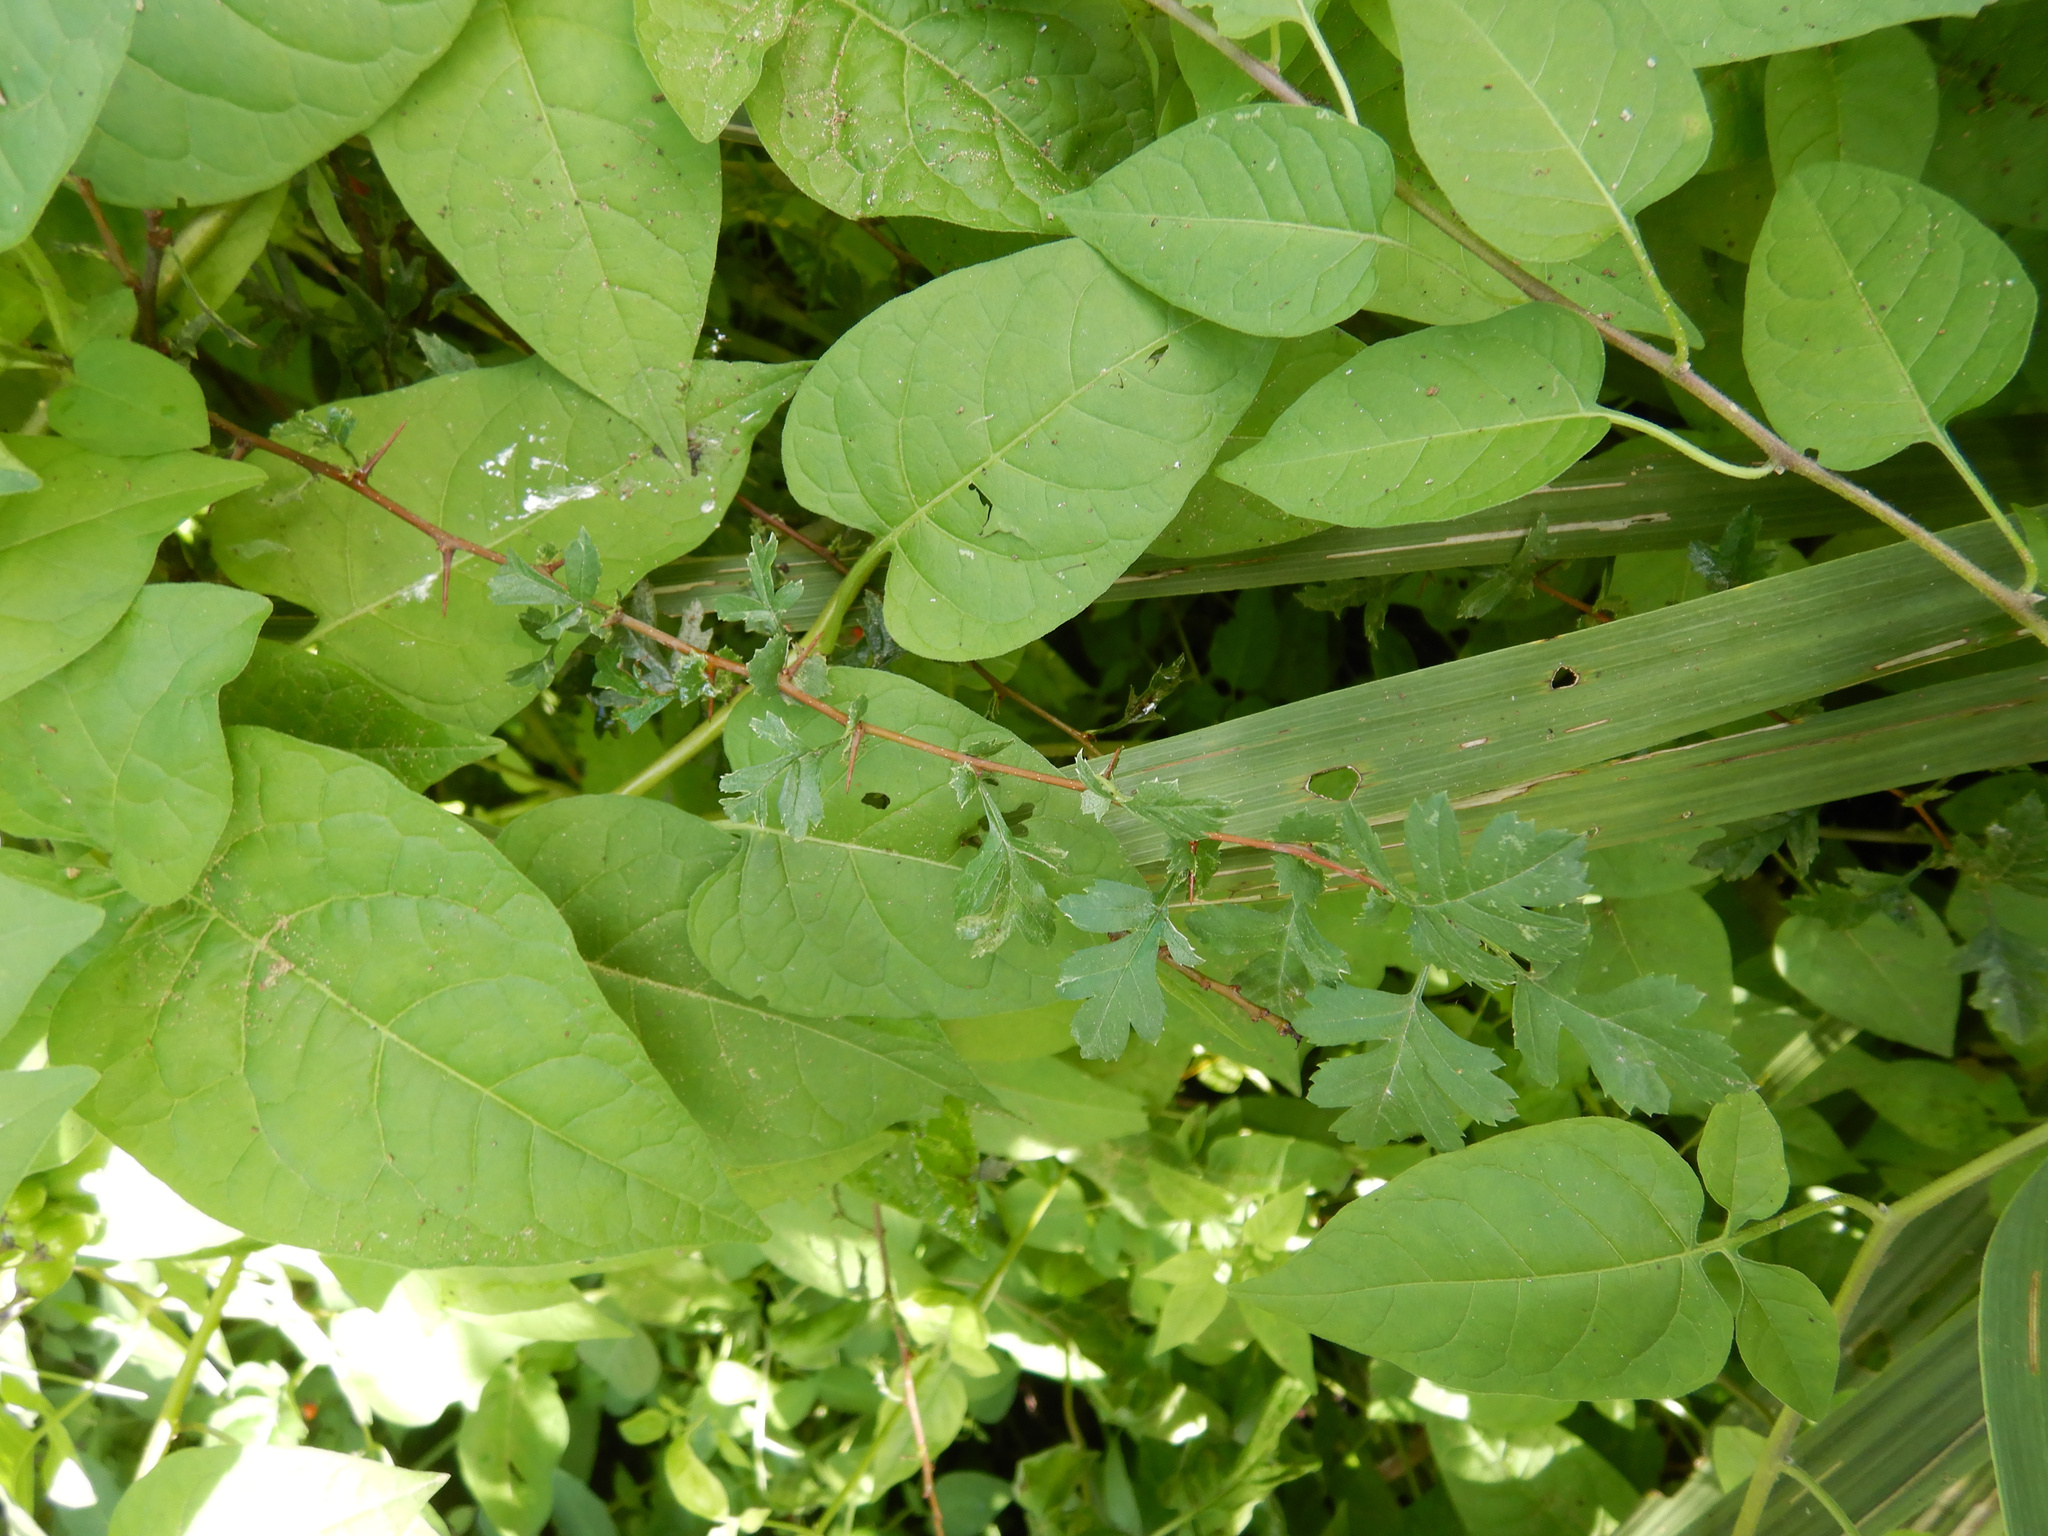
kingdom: Plantae
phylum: Tracheophyta
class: Magnoliopsida
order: Rosales
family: Rosaceae
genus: Crataegus
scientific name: Crataegus monogyna
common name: Hawthorn
